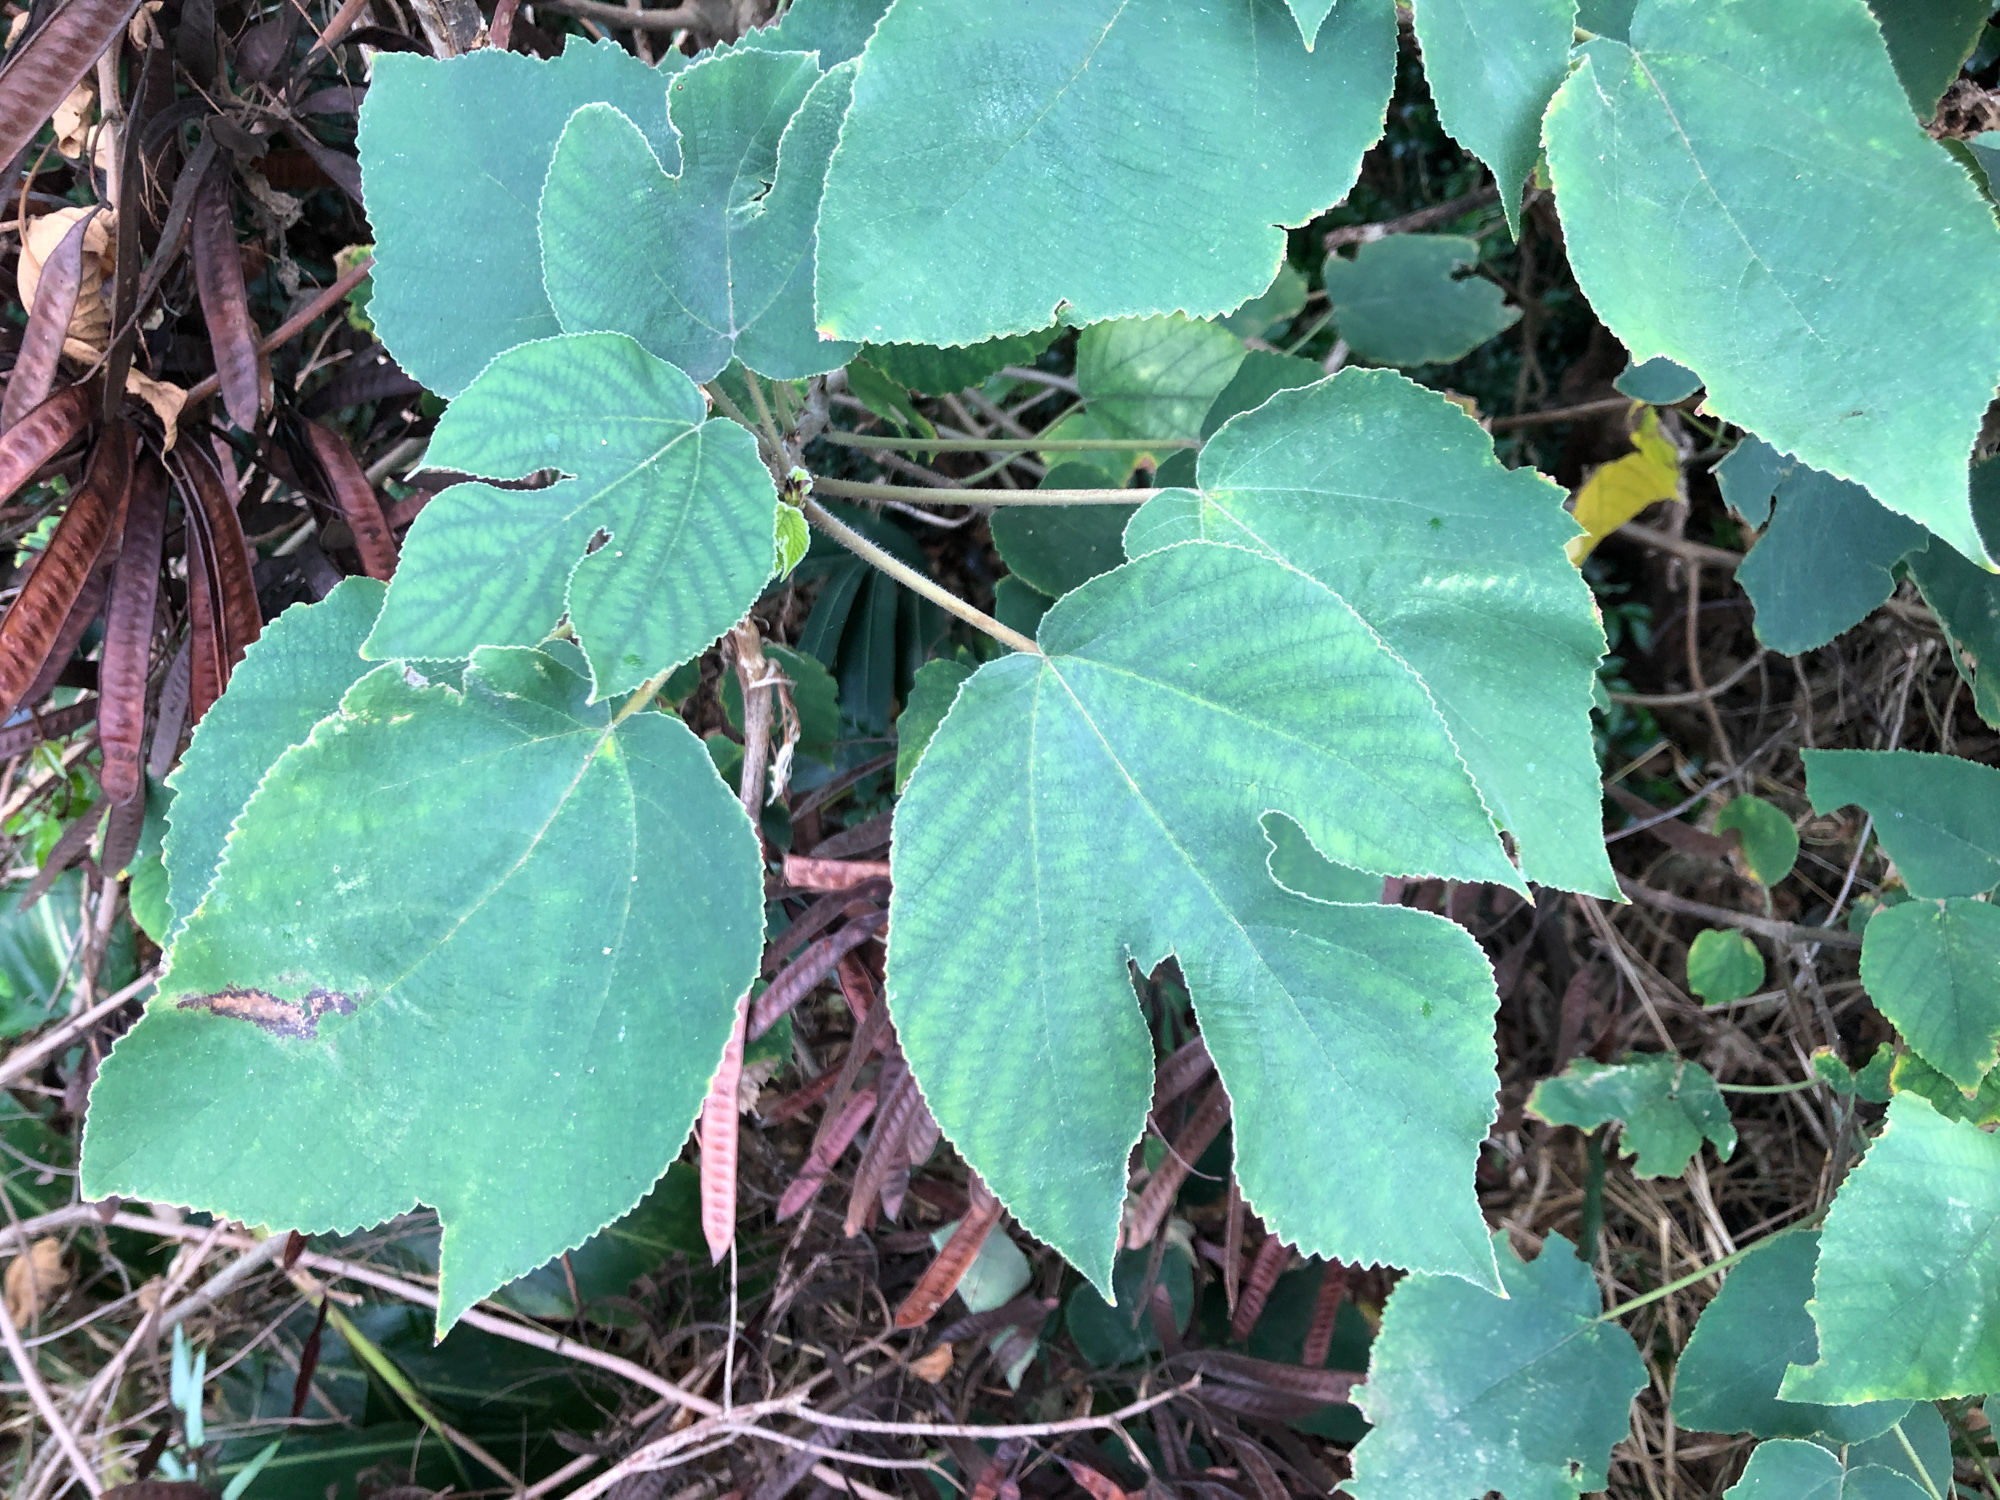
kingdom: Plantae
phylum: Tracheophyta
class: Magnoliopsida
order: Rosales
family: Moraceae
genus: Broussonetia
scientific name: Broussonetia papyrifera
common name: Paper mulberry
